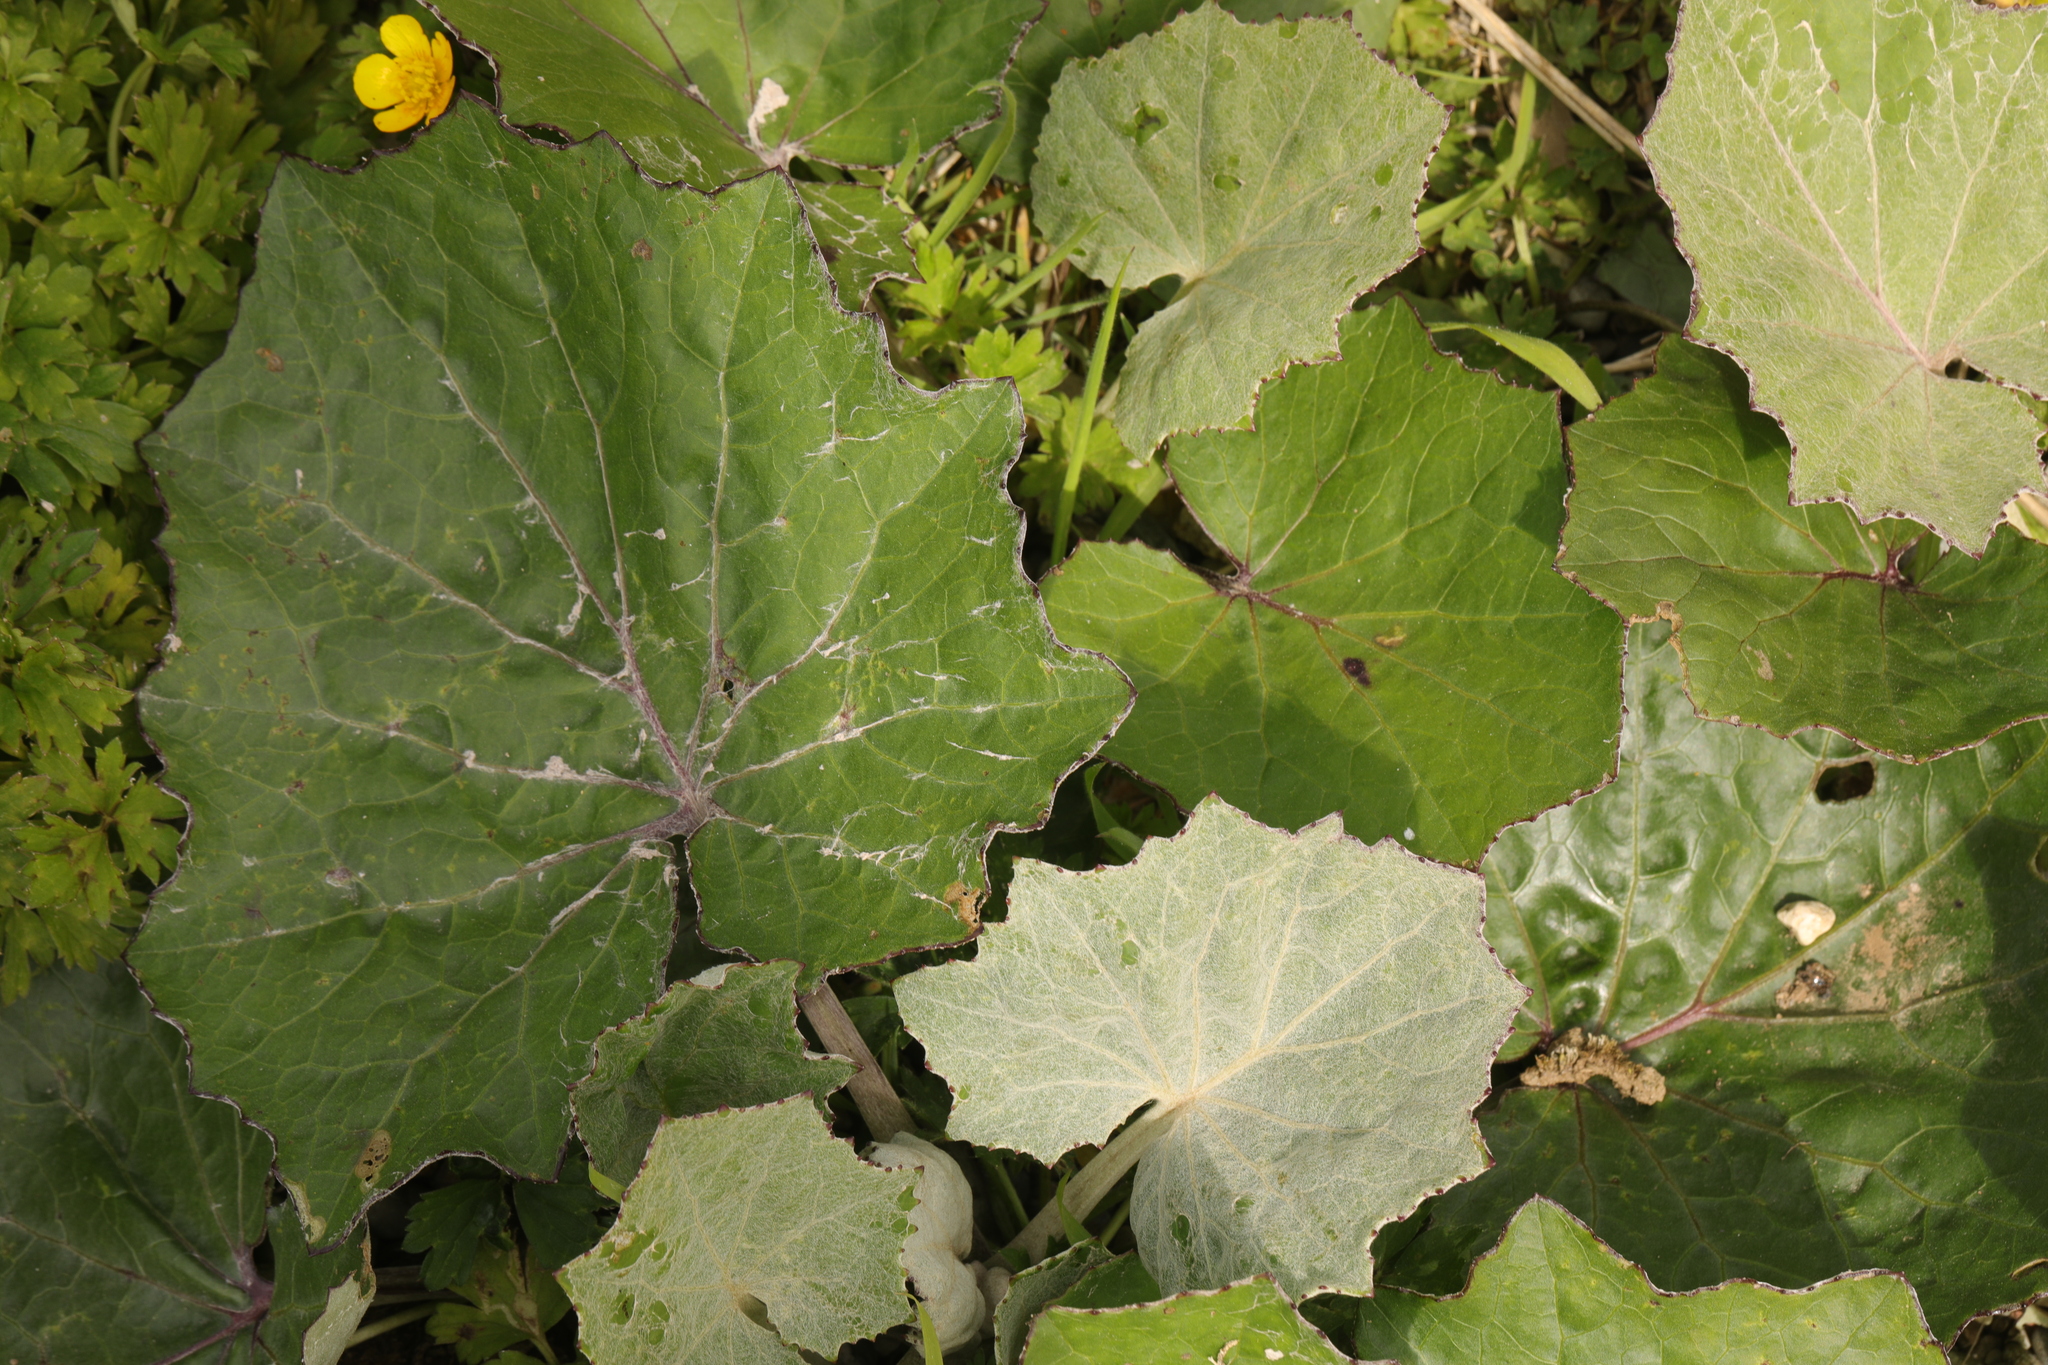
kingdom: Plantae
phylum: Tracheophyta
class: Magnoliopsida
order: Asterales
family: Asteraceae
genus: Tussilago
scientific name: Tussilago farfara
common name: Coltsfoot
